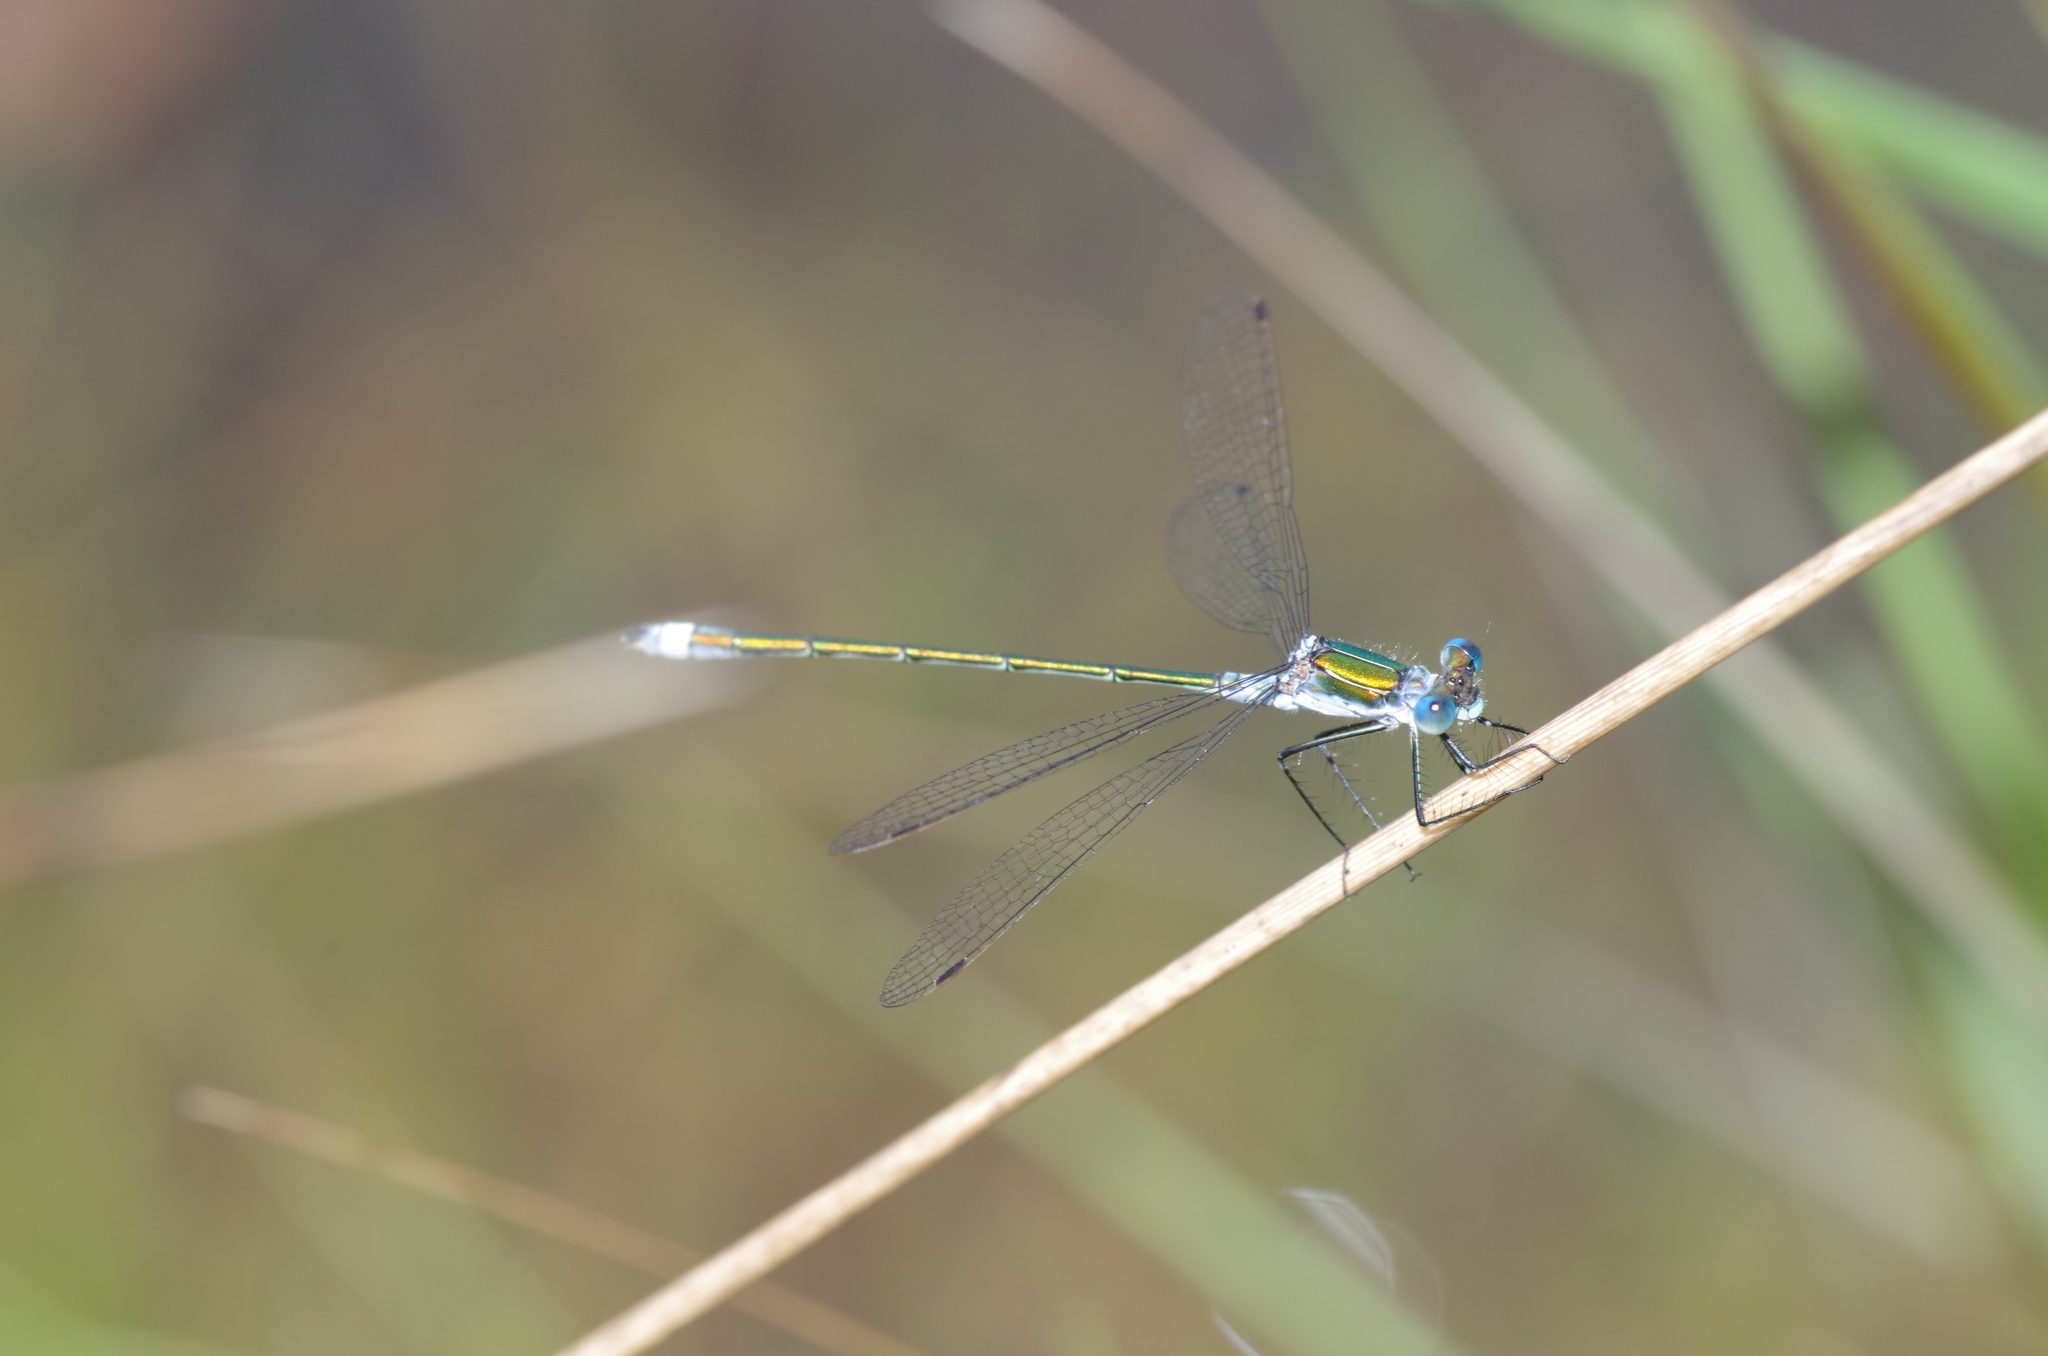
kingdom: Animalia
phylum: Arthropoda
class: Insecta
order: Odonata
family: Lestidae
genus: Lestes
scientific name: Lestes sponsa
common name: Common spreadwing
